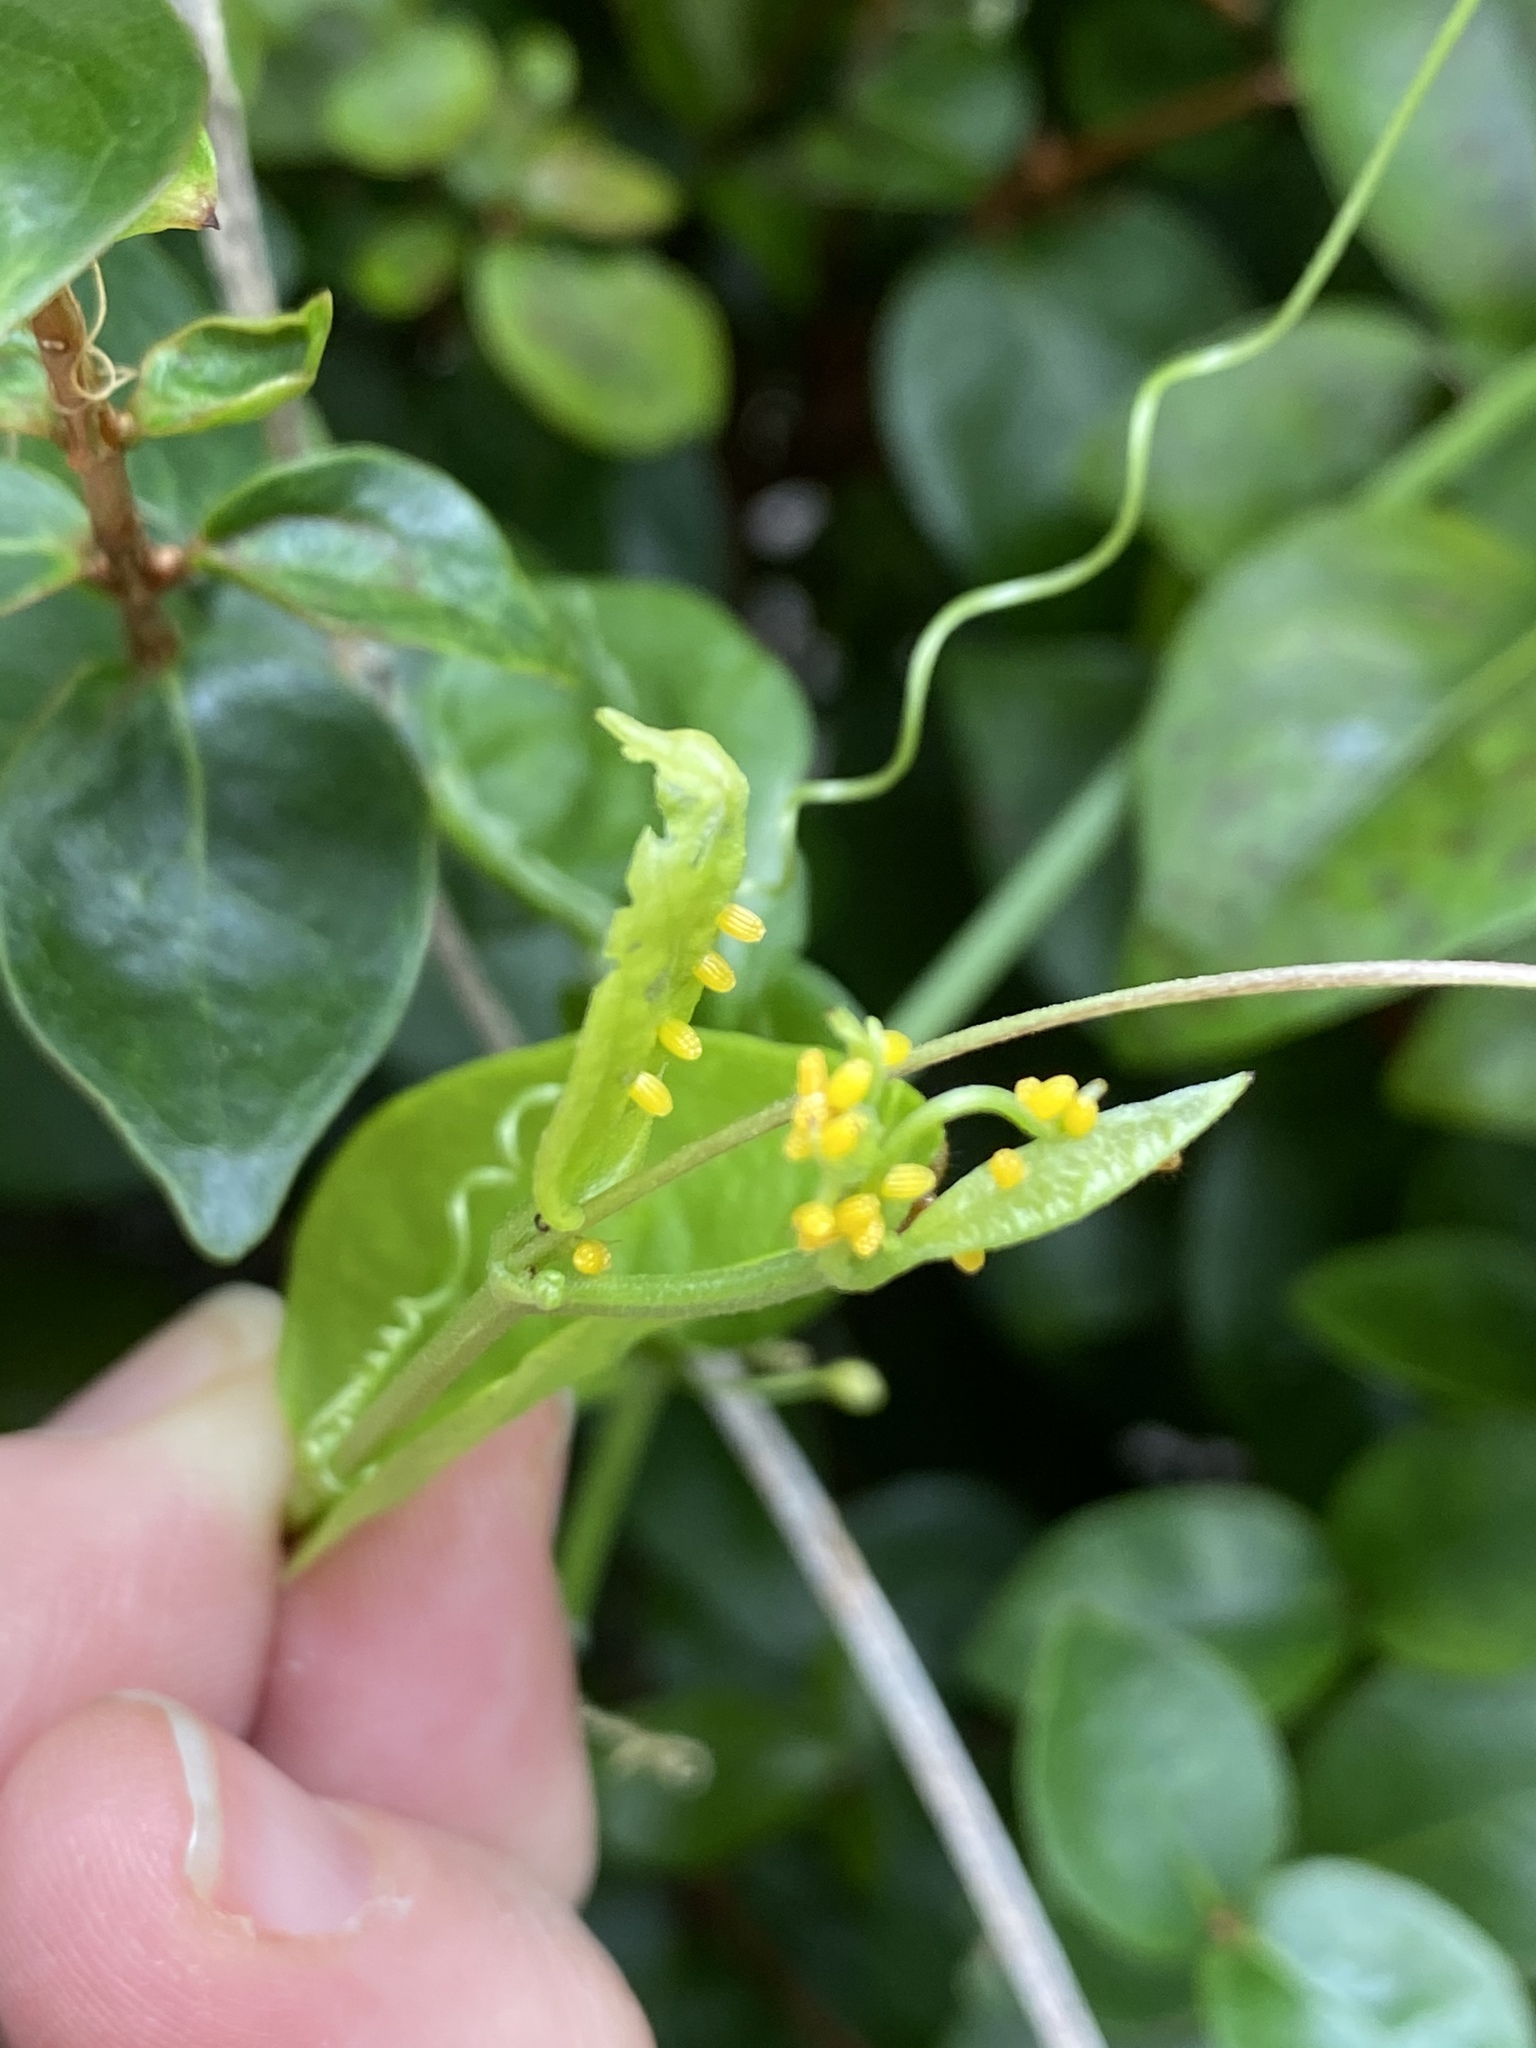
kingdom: Animalia
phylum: Arthropoda
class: Insecta
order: Lepidoptera
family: Nymphalidae
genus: Heliconius
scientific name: Heliconius charithonia
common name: Zebra long wing
